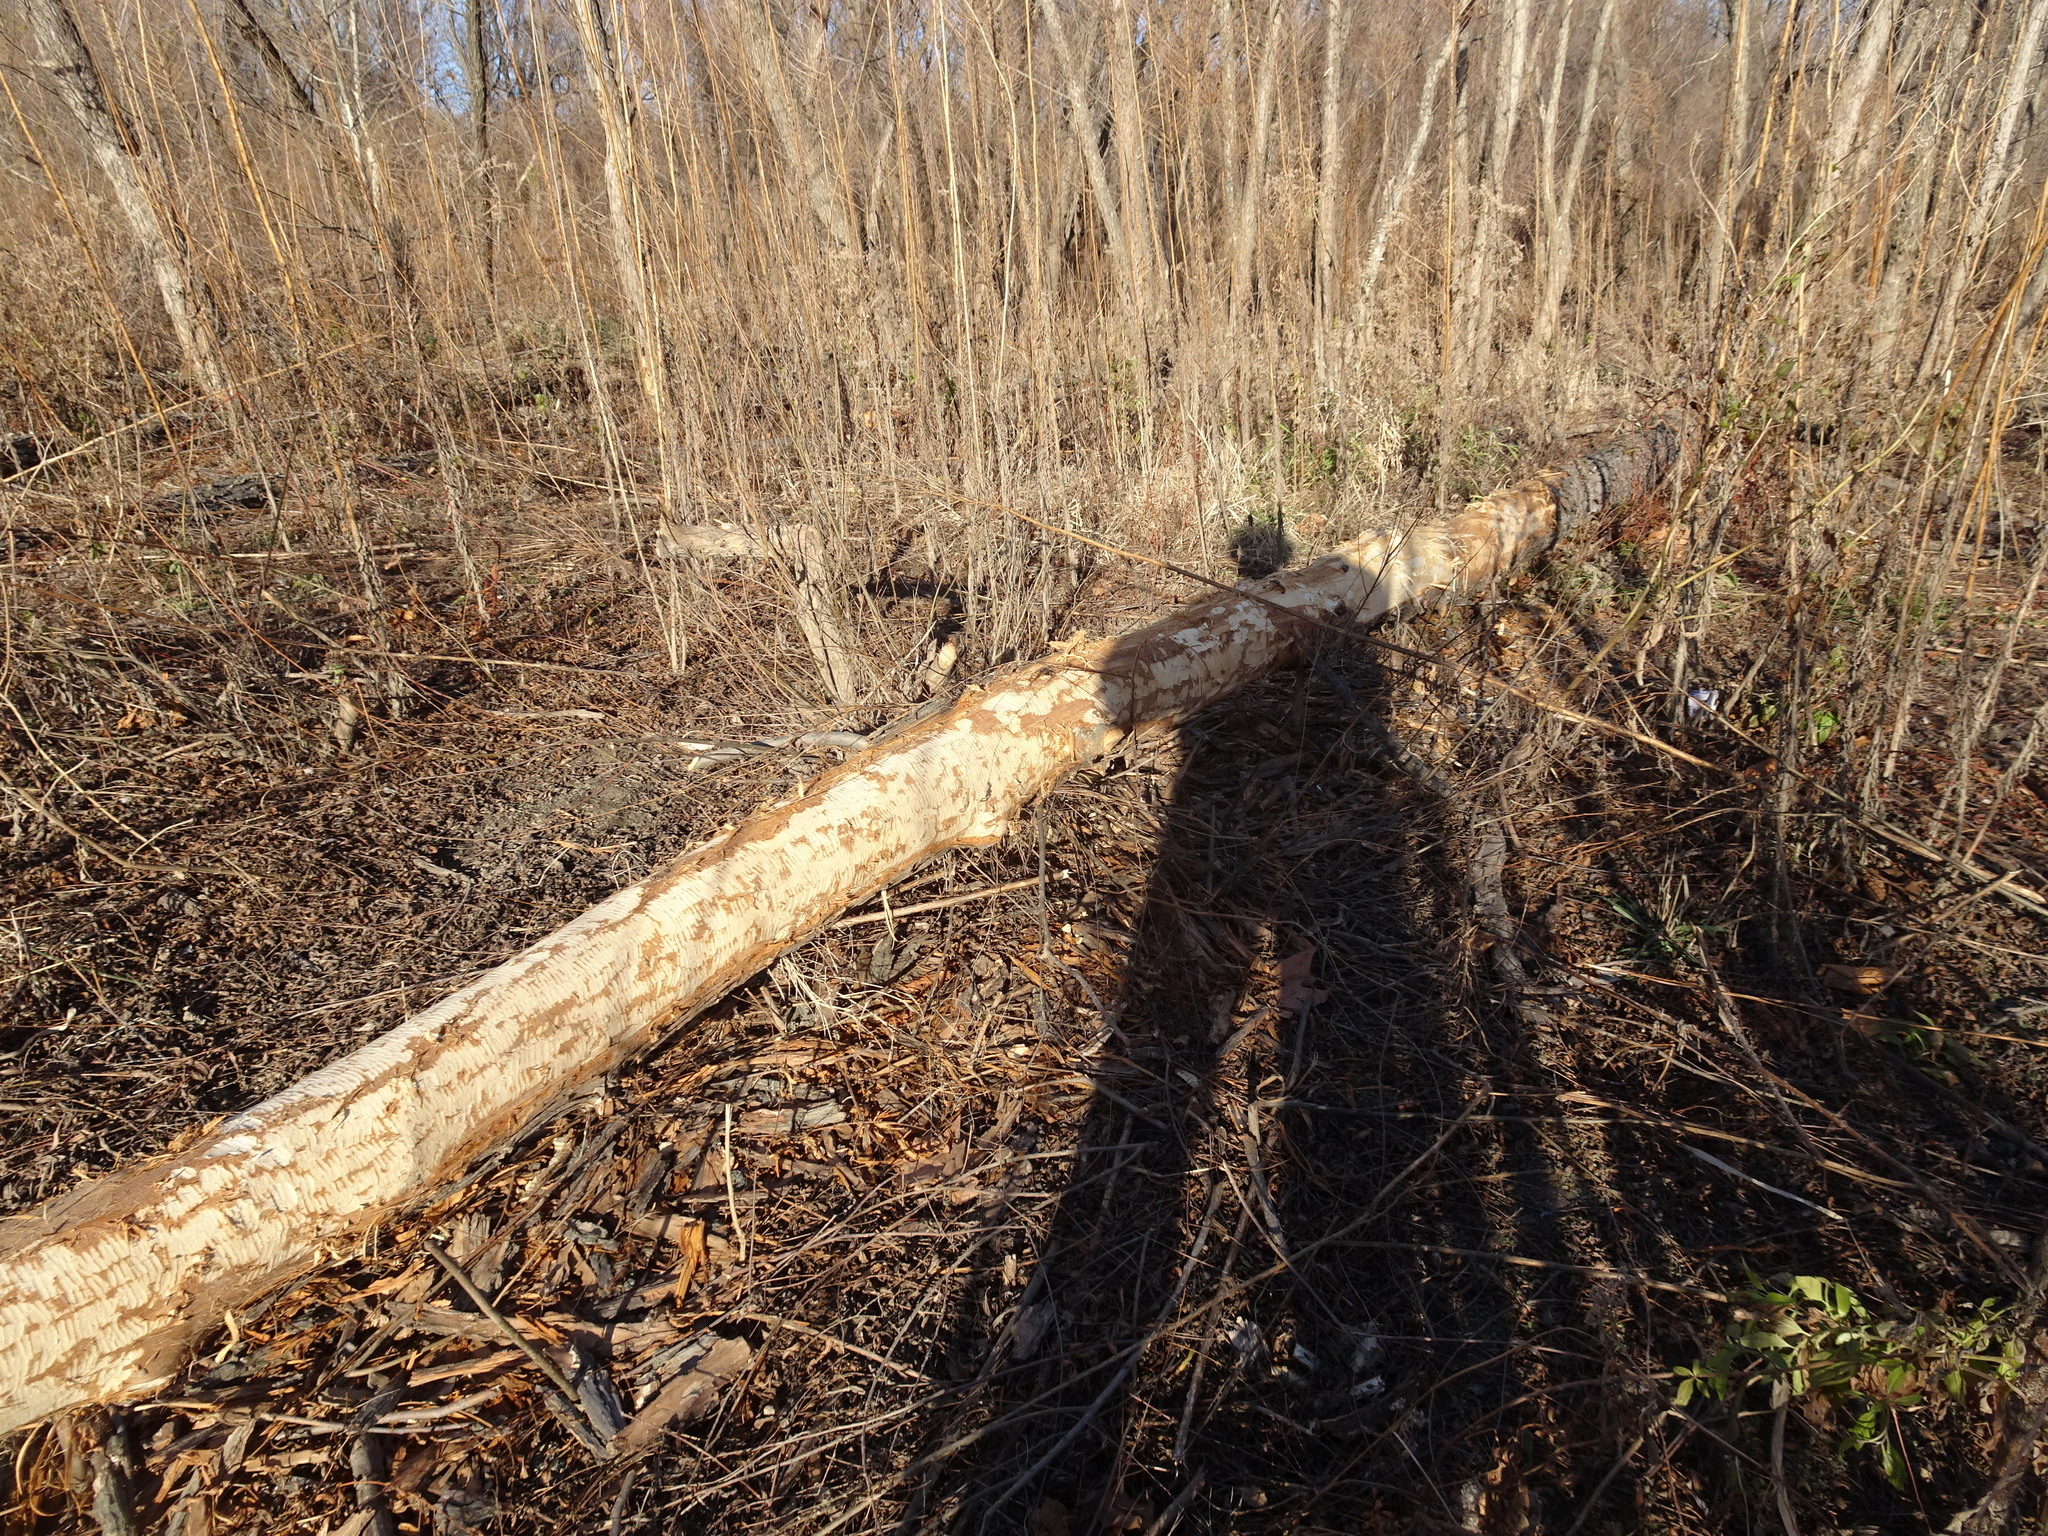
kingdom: Animalia
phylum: Chordata
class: Mammalia
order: Rodentia
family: Castoridae
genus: Castor
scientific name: Castor canadensis
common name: American beaver
